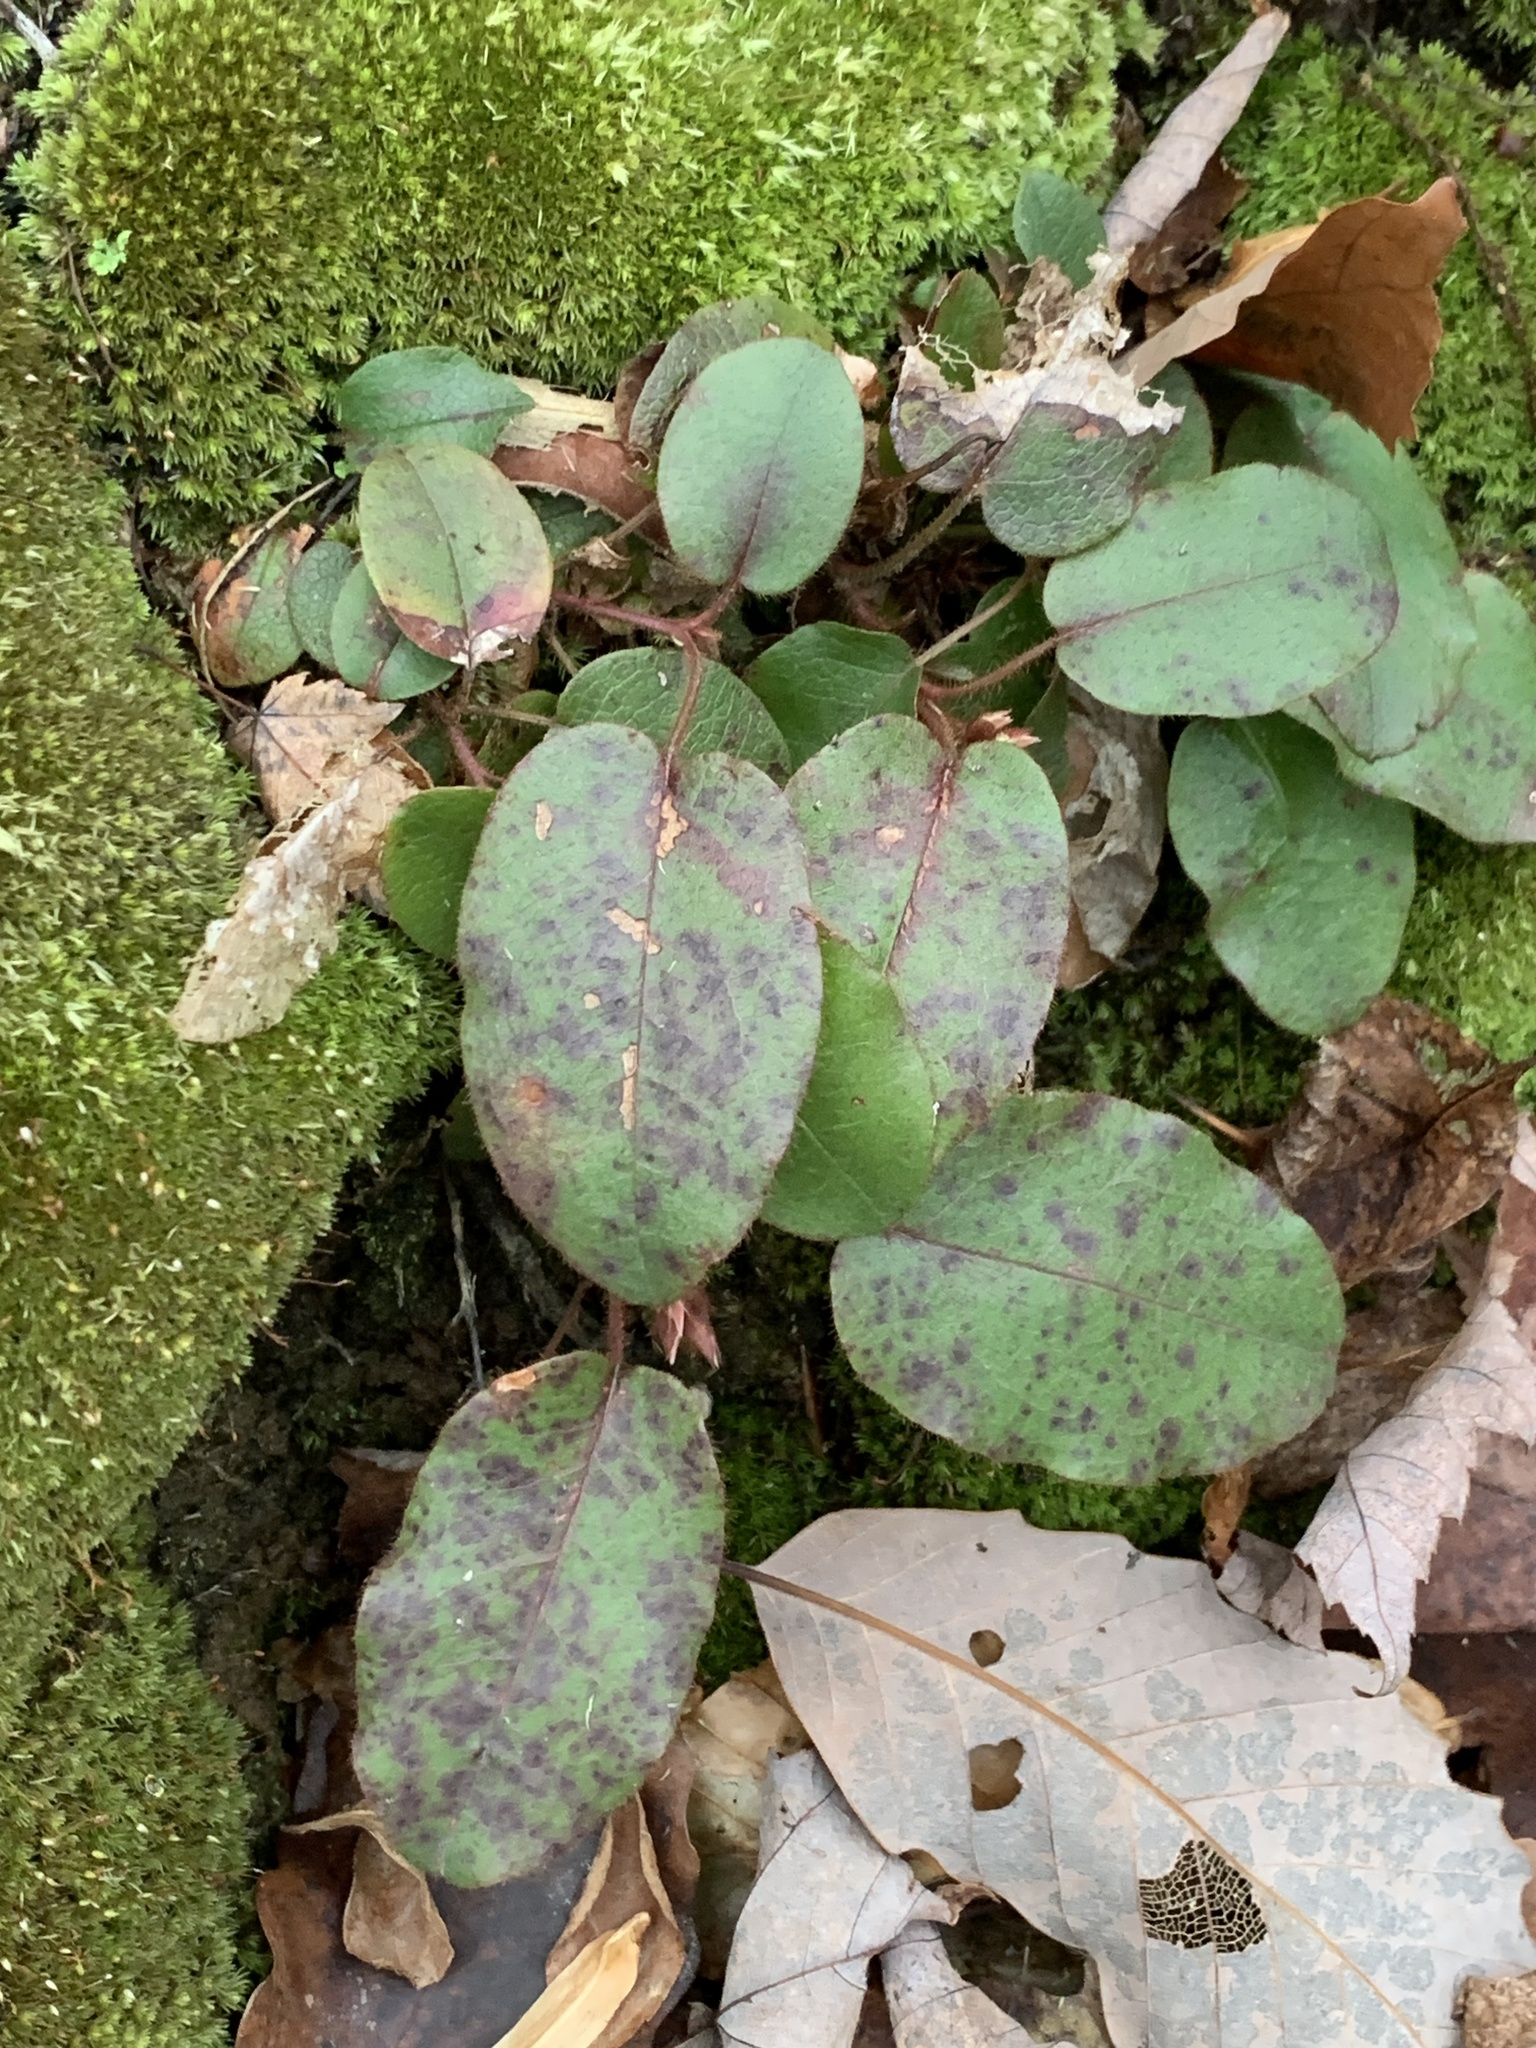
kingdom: Plantae
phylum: Tracheophyta
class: Magnoliopsida
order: Ericales
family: Ericaceae
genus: Epigaea
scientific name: Epigaea repens
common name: Gravelroot
